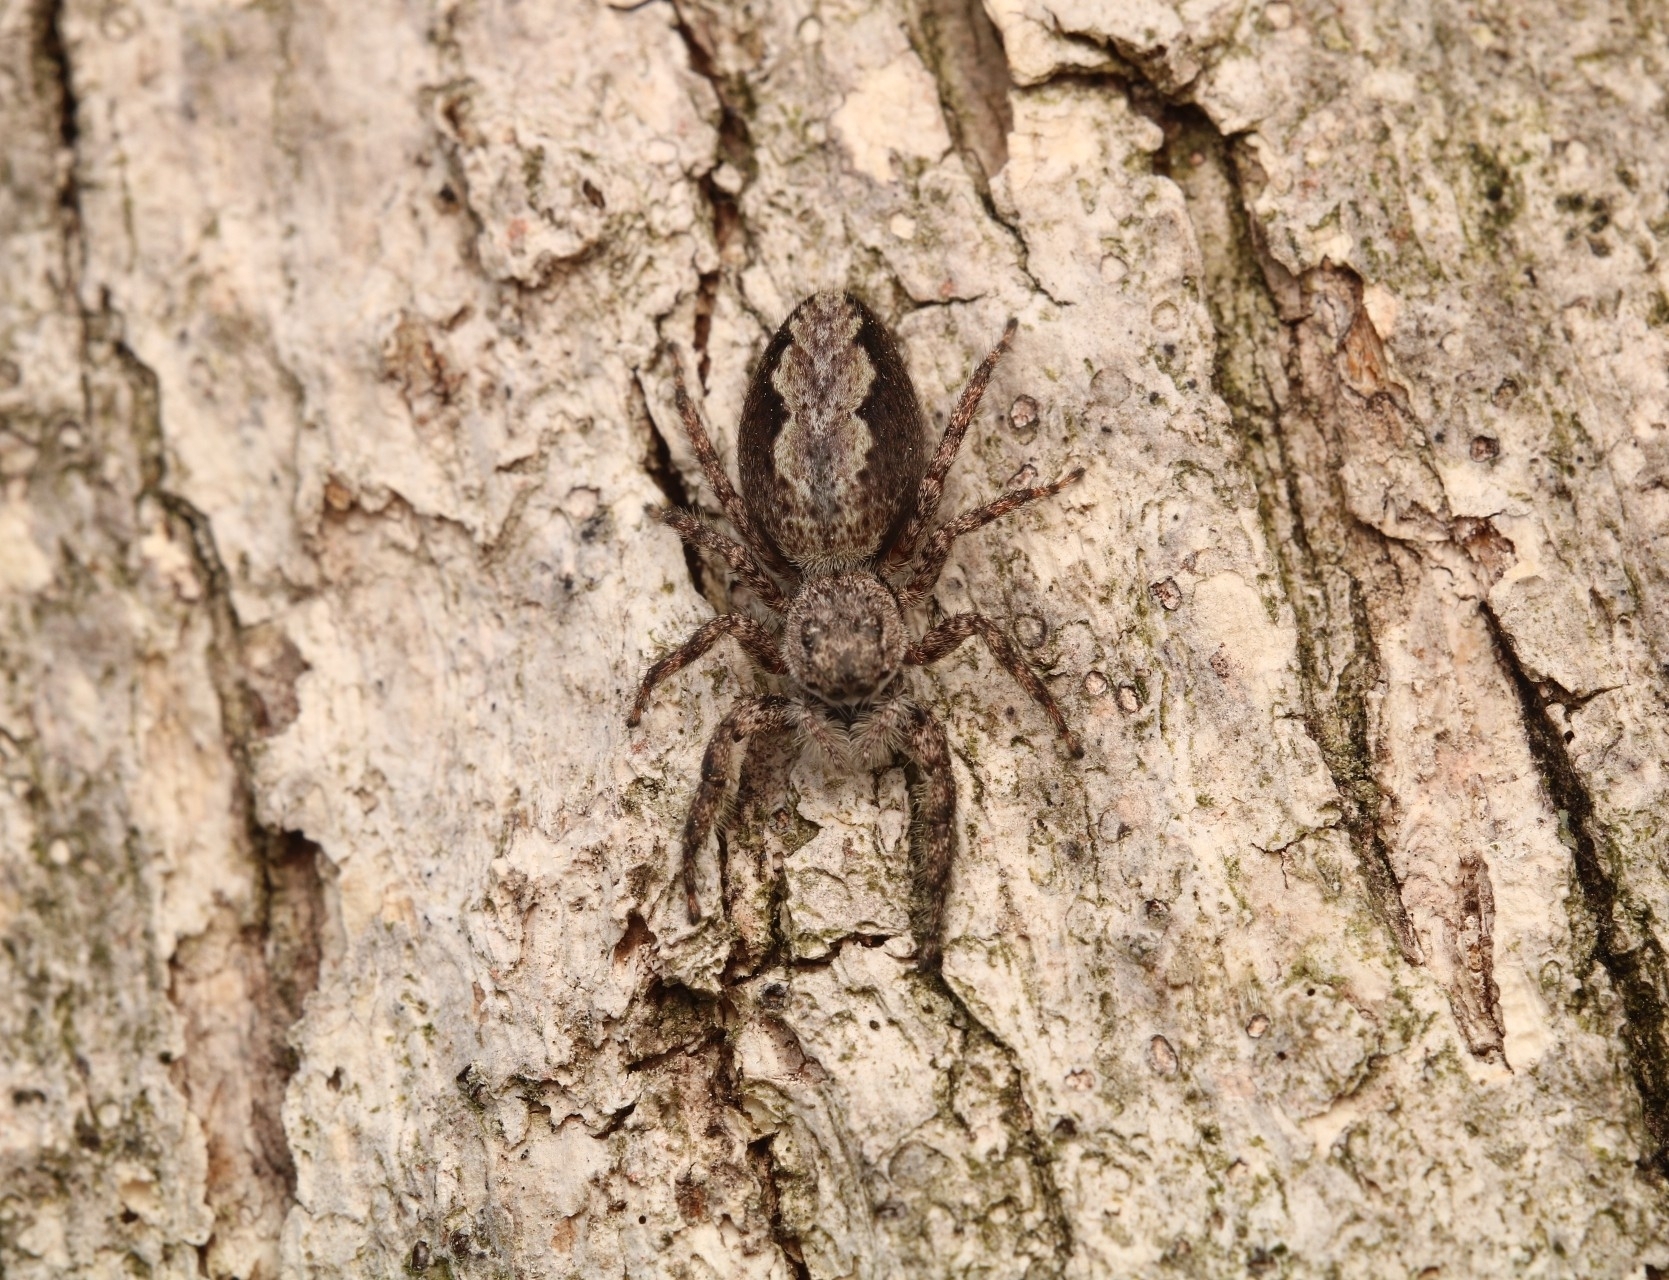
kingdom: Animalia
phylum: Arthropoda
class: Arachnida
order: Araneae
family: Salticidae
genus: Platycryptus
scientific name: Platycryptus undatus
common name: Tan jumping spider
